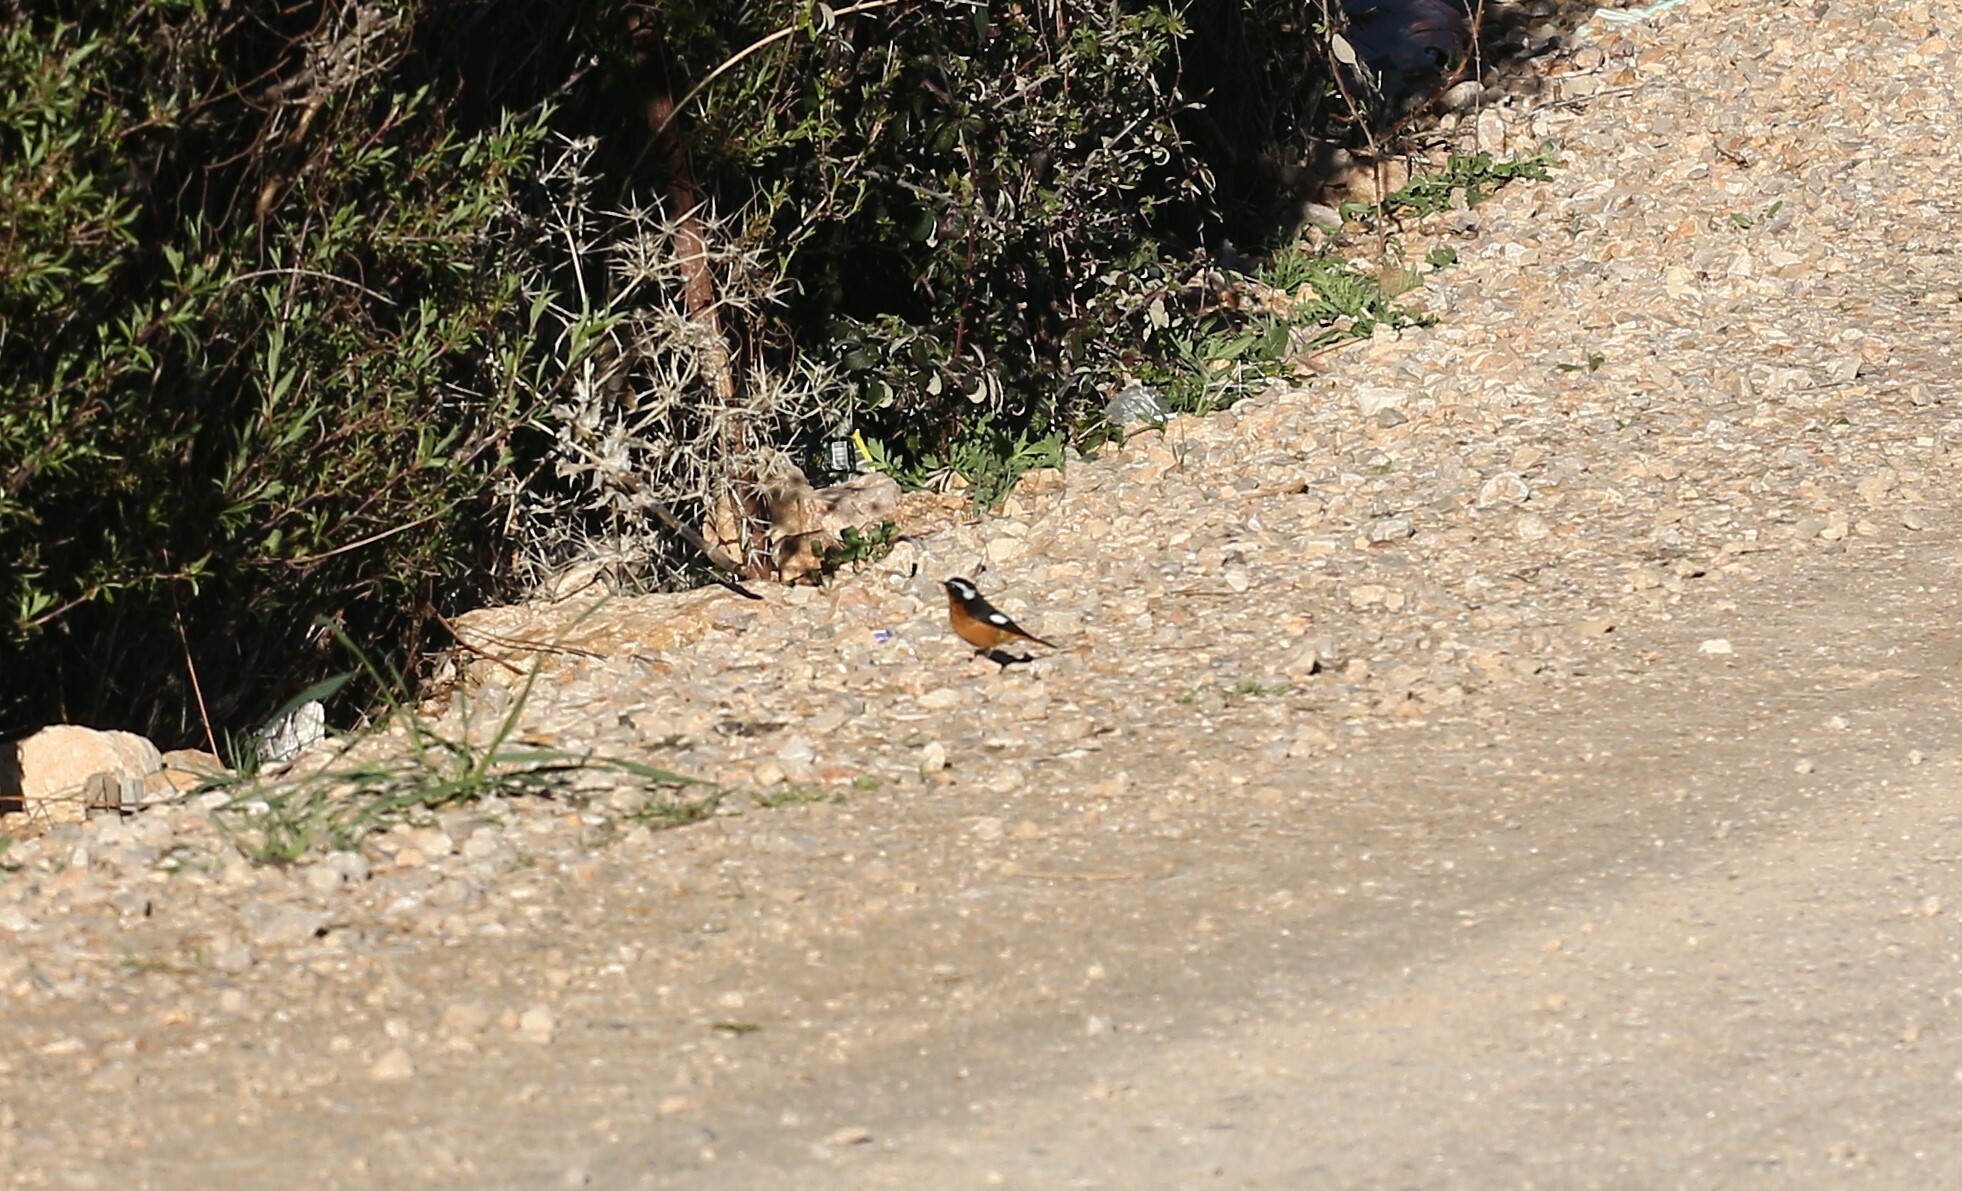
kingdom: Animalia
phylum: Chordata
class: Aves
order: Passeriformes
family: Muscicapidae
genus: Phoenicurus
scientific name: Phoenicurus moussieri
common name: Moussier's redstart
